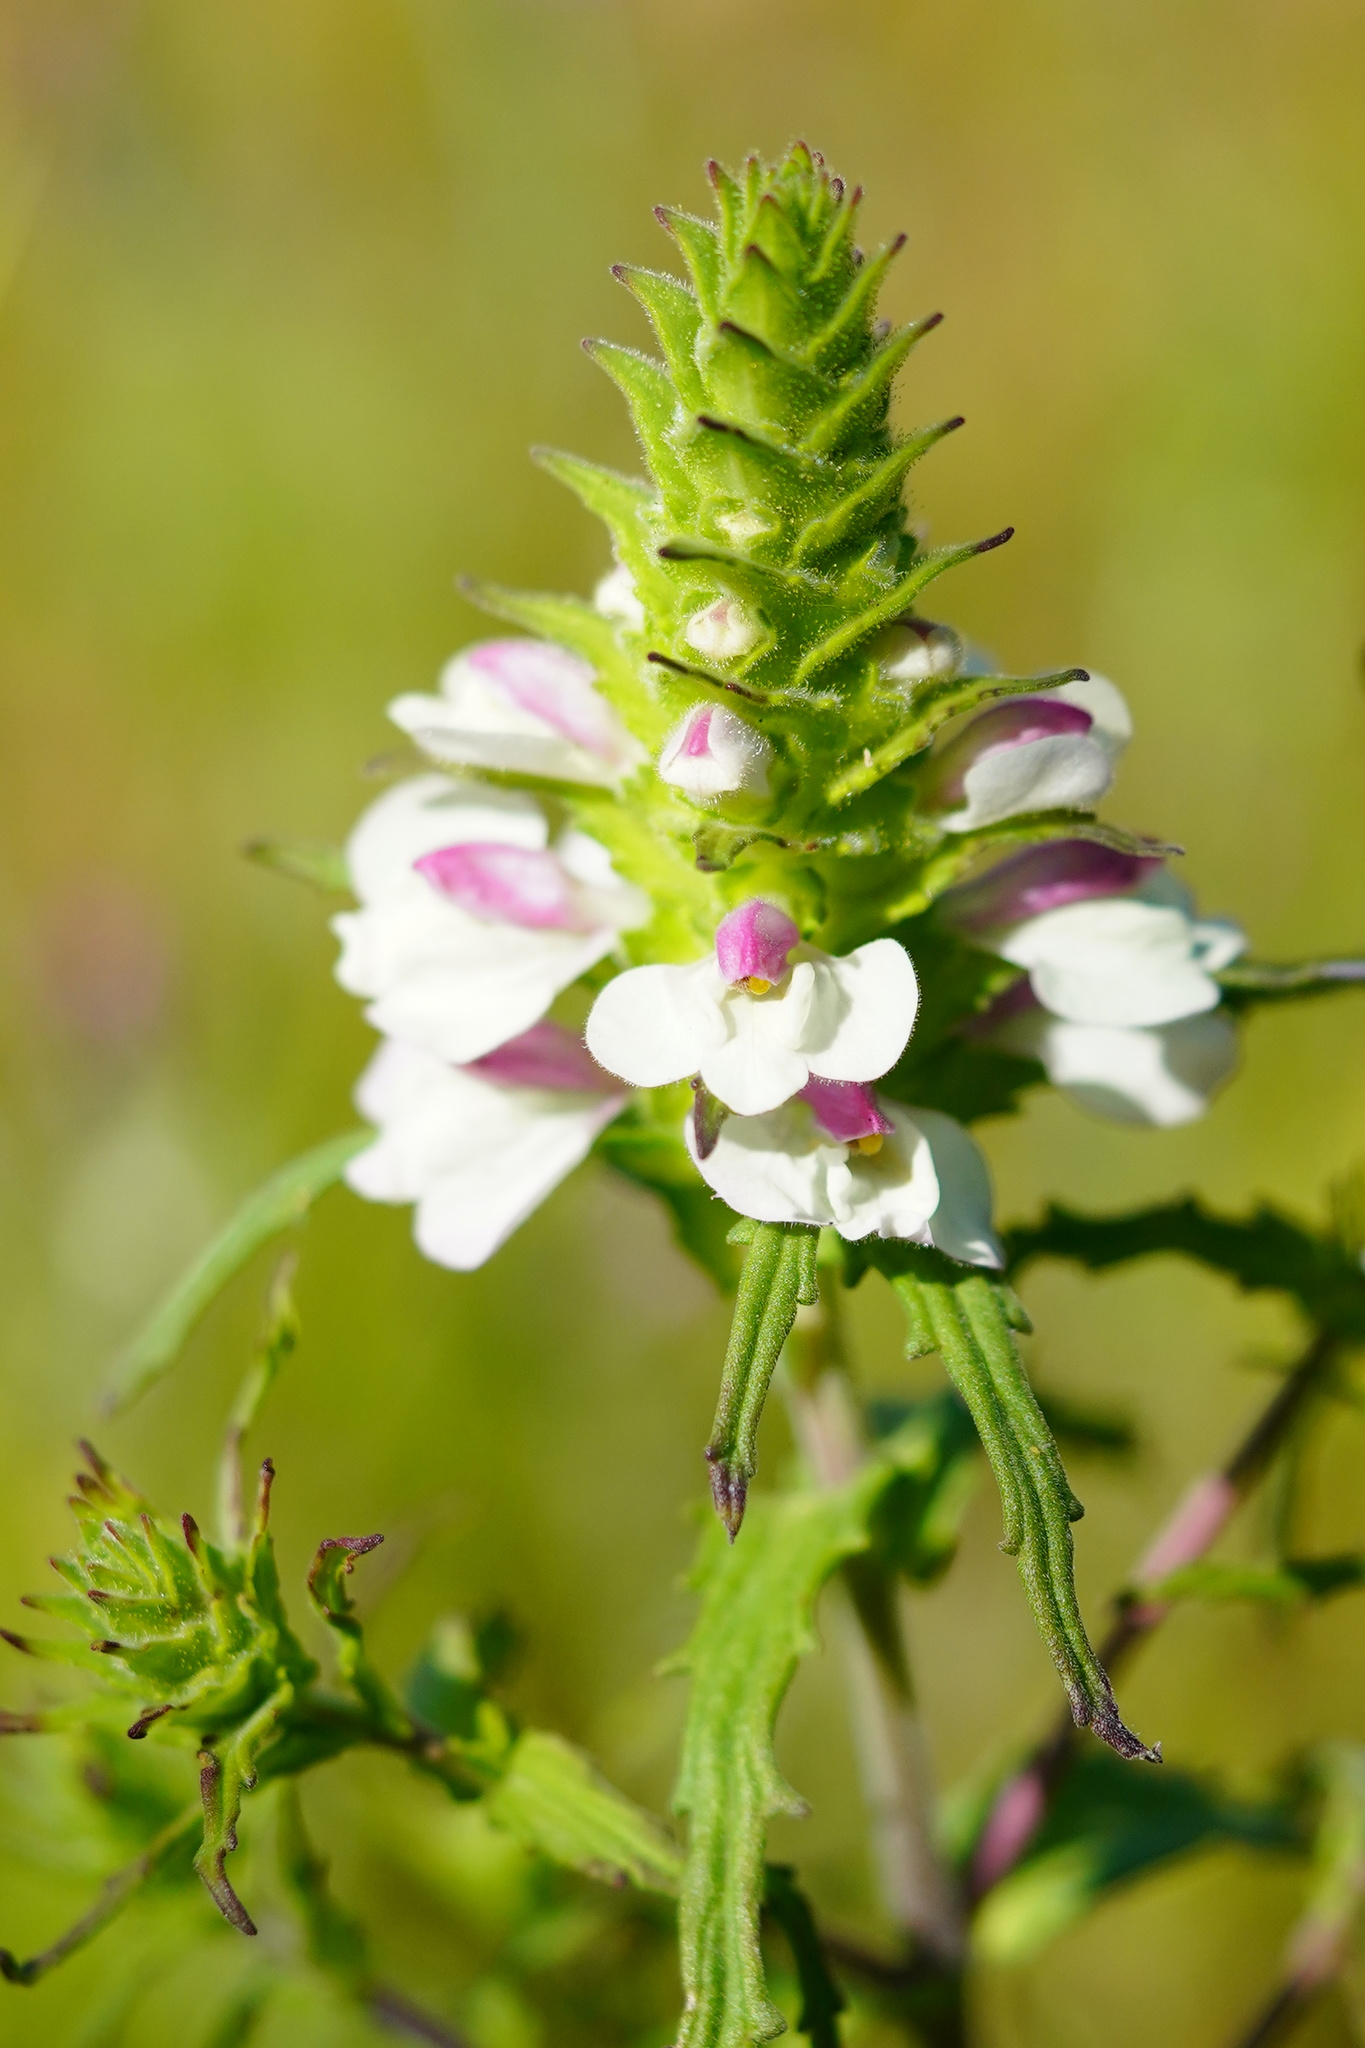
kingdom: Plantae
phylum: Tracheophyta
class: Magnoliopsida
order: Lamiales
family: Orobanchaceae
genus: Bellardia
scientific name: Bellardia trixago
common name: Mediterranean lineseed
